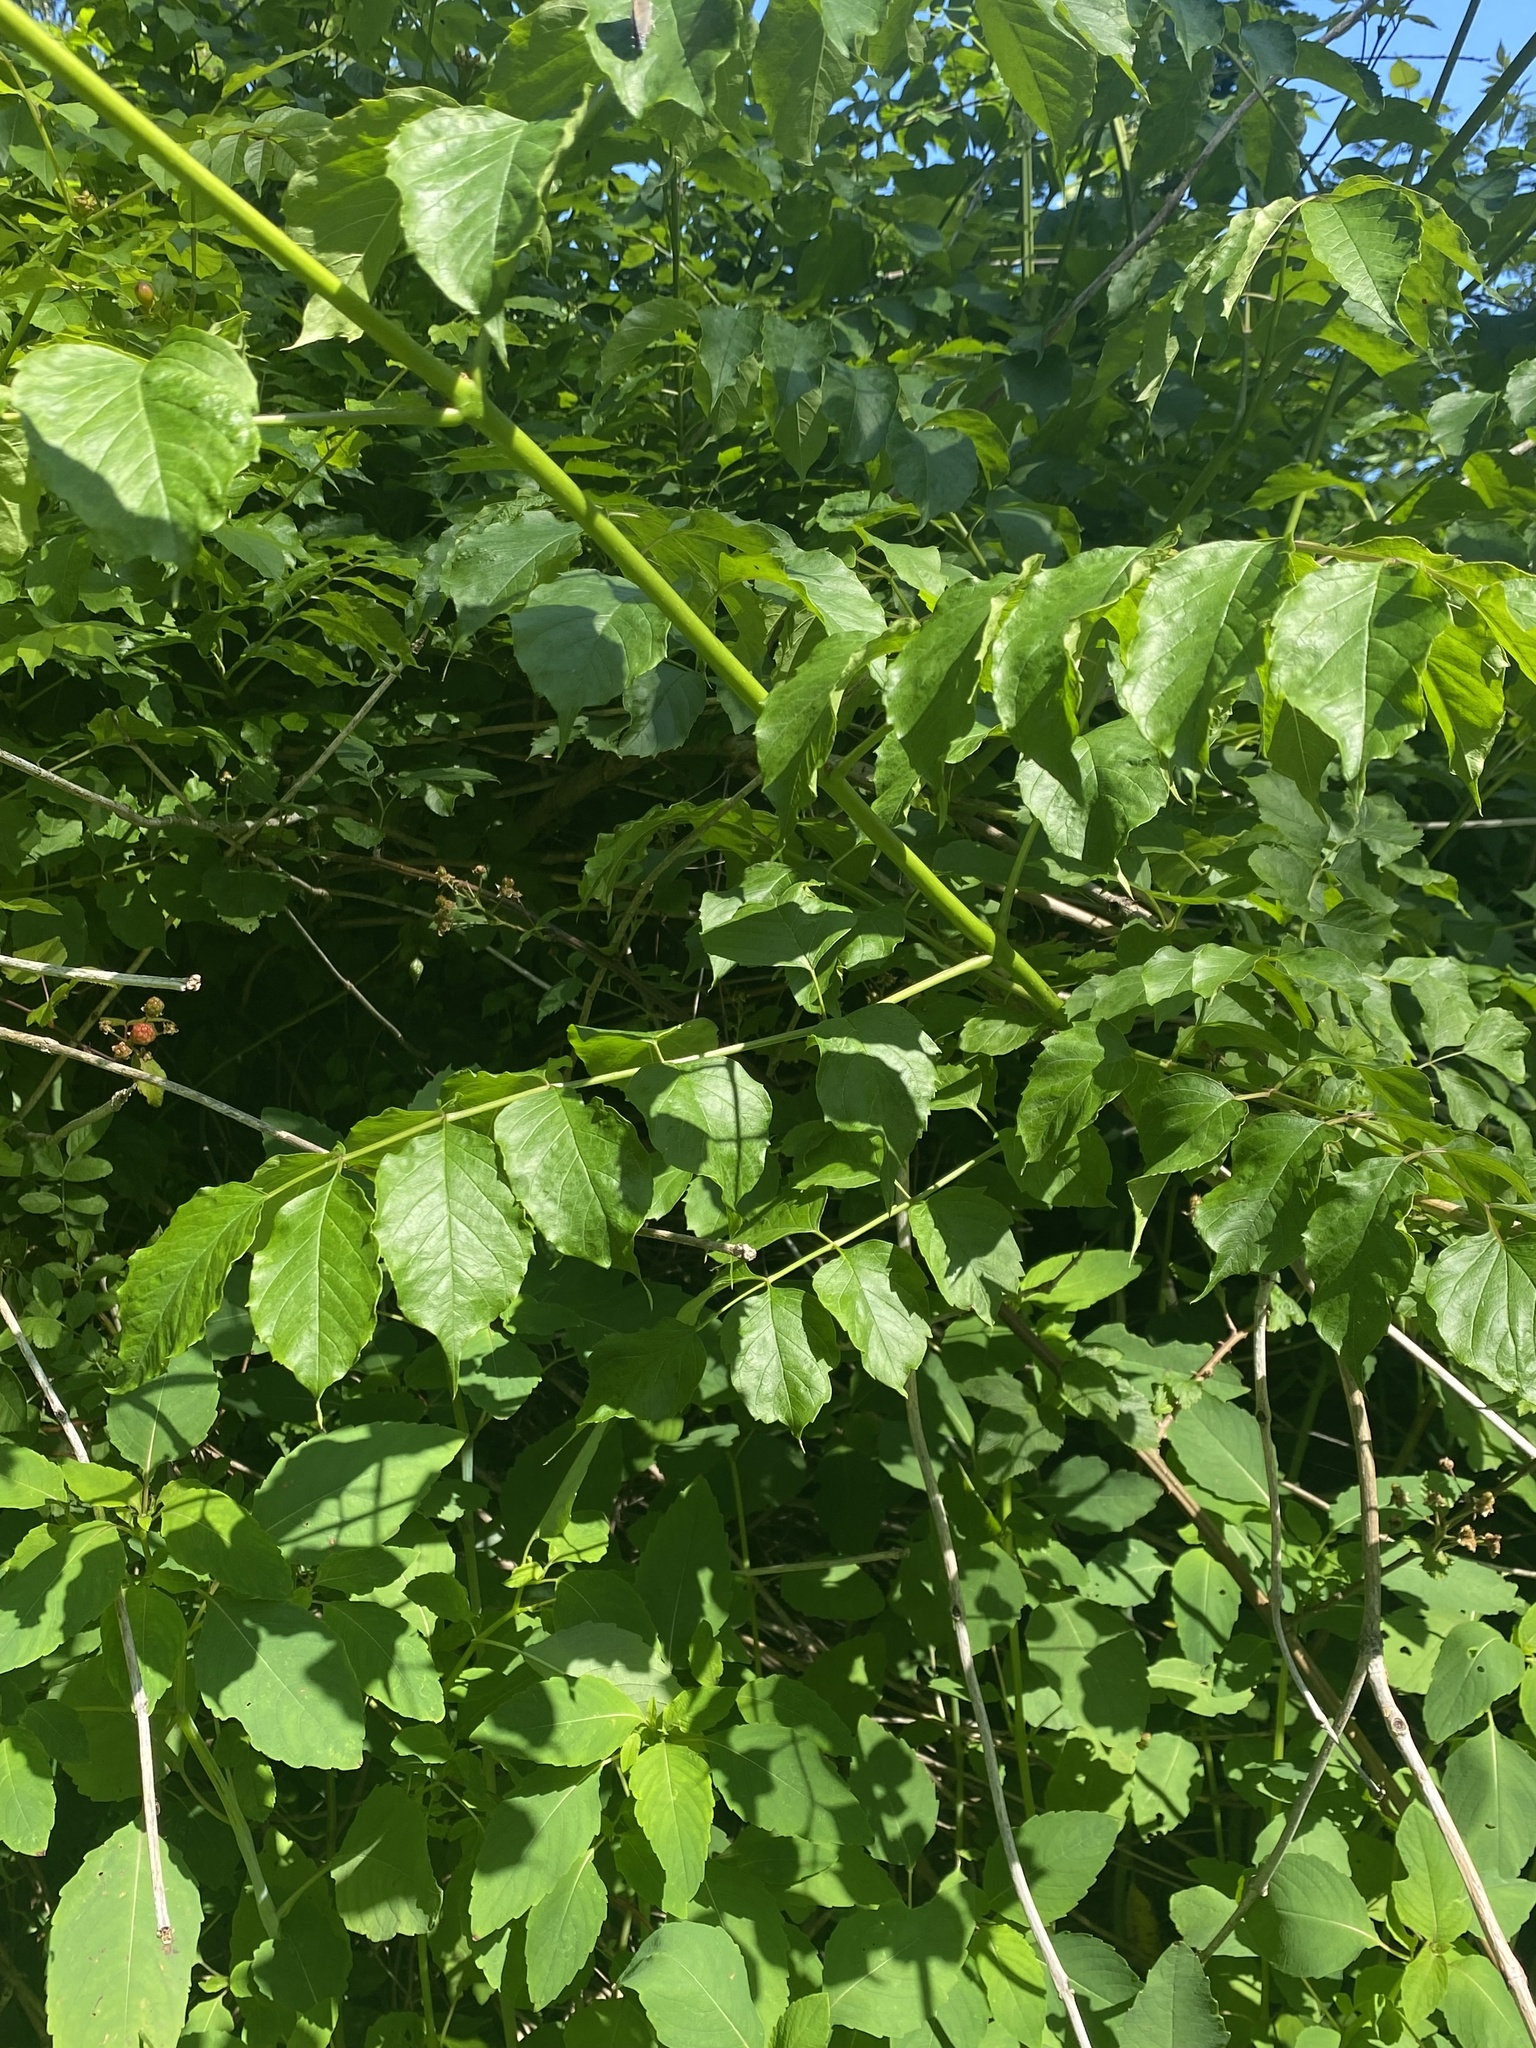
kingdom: Plantae
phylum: Tracheophyta
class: Magnoliopsida
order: Lamiales
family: Bignoniaceae
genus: Campsis
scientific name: Campsis radicans
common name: Trumpet-creeper
